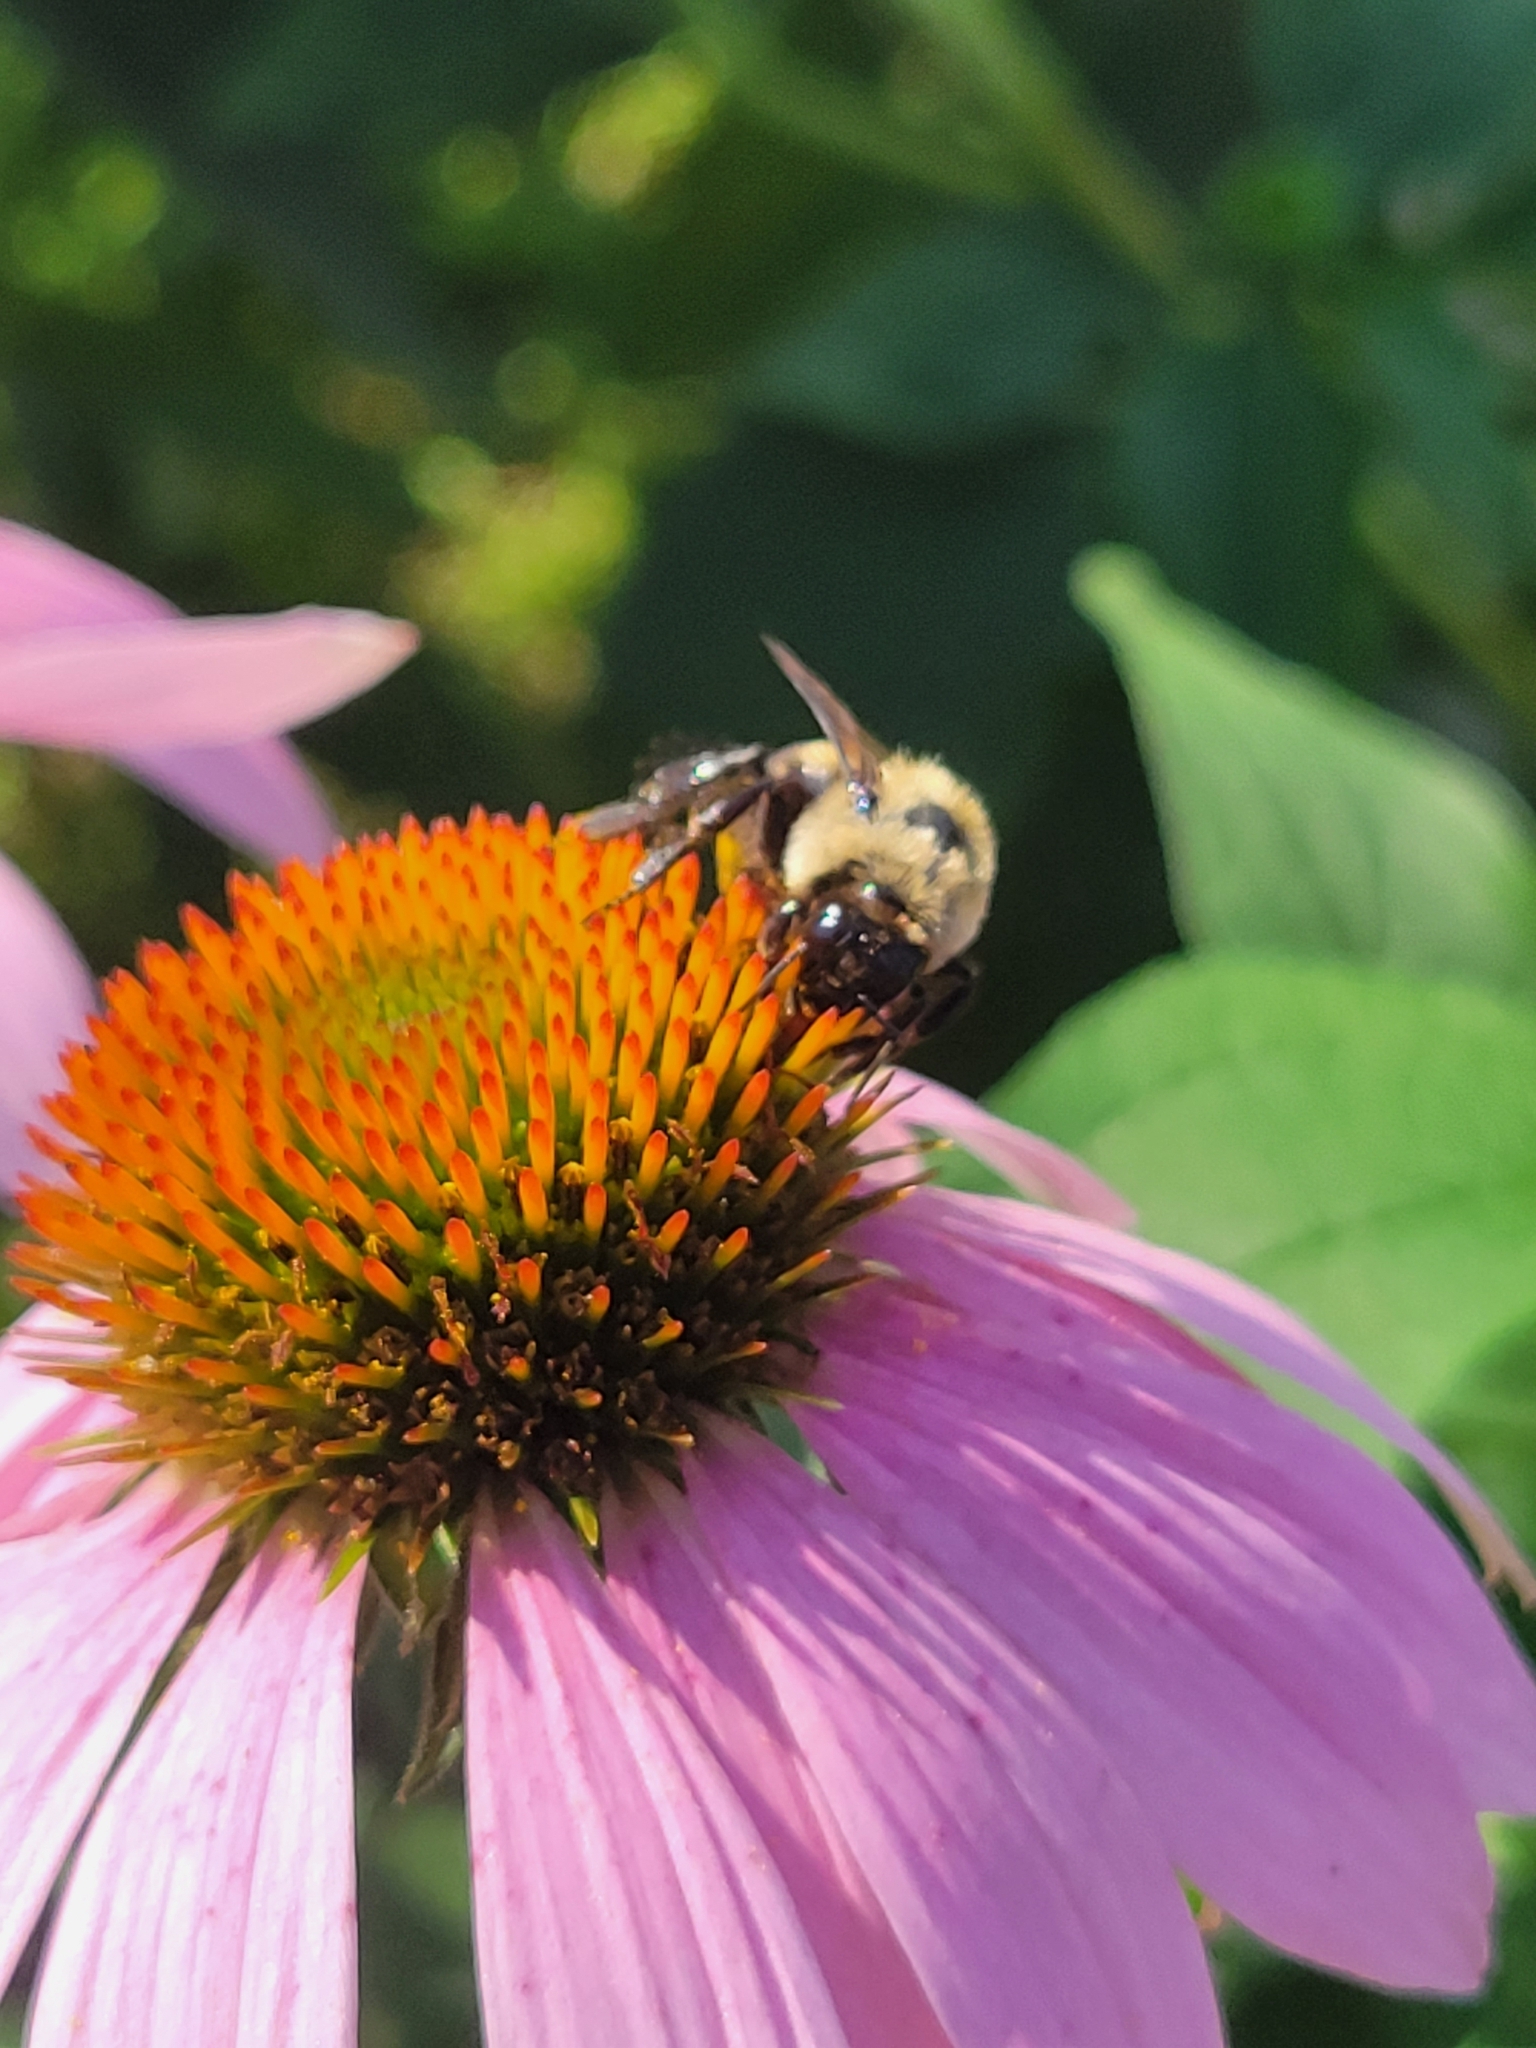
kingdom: Animalia
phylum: Arthropoda
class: Insecta
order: Hymenoptera
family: Apidae
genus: Bombus
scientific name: Bombus impatiens
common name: Common eastern bumble bee
